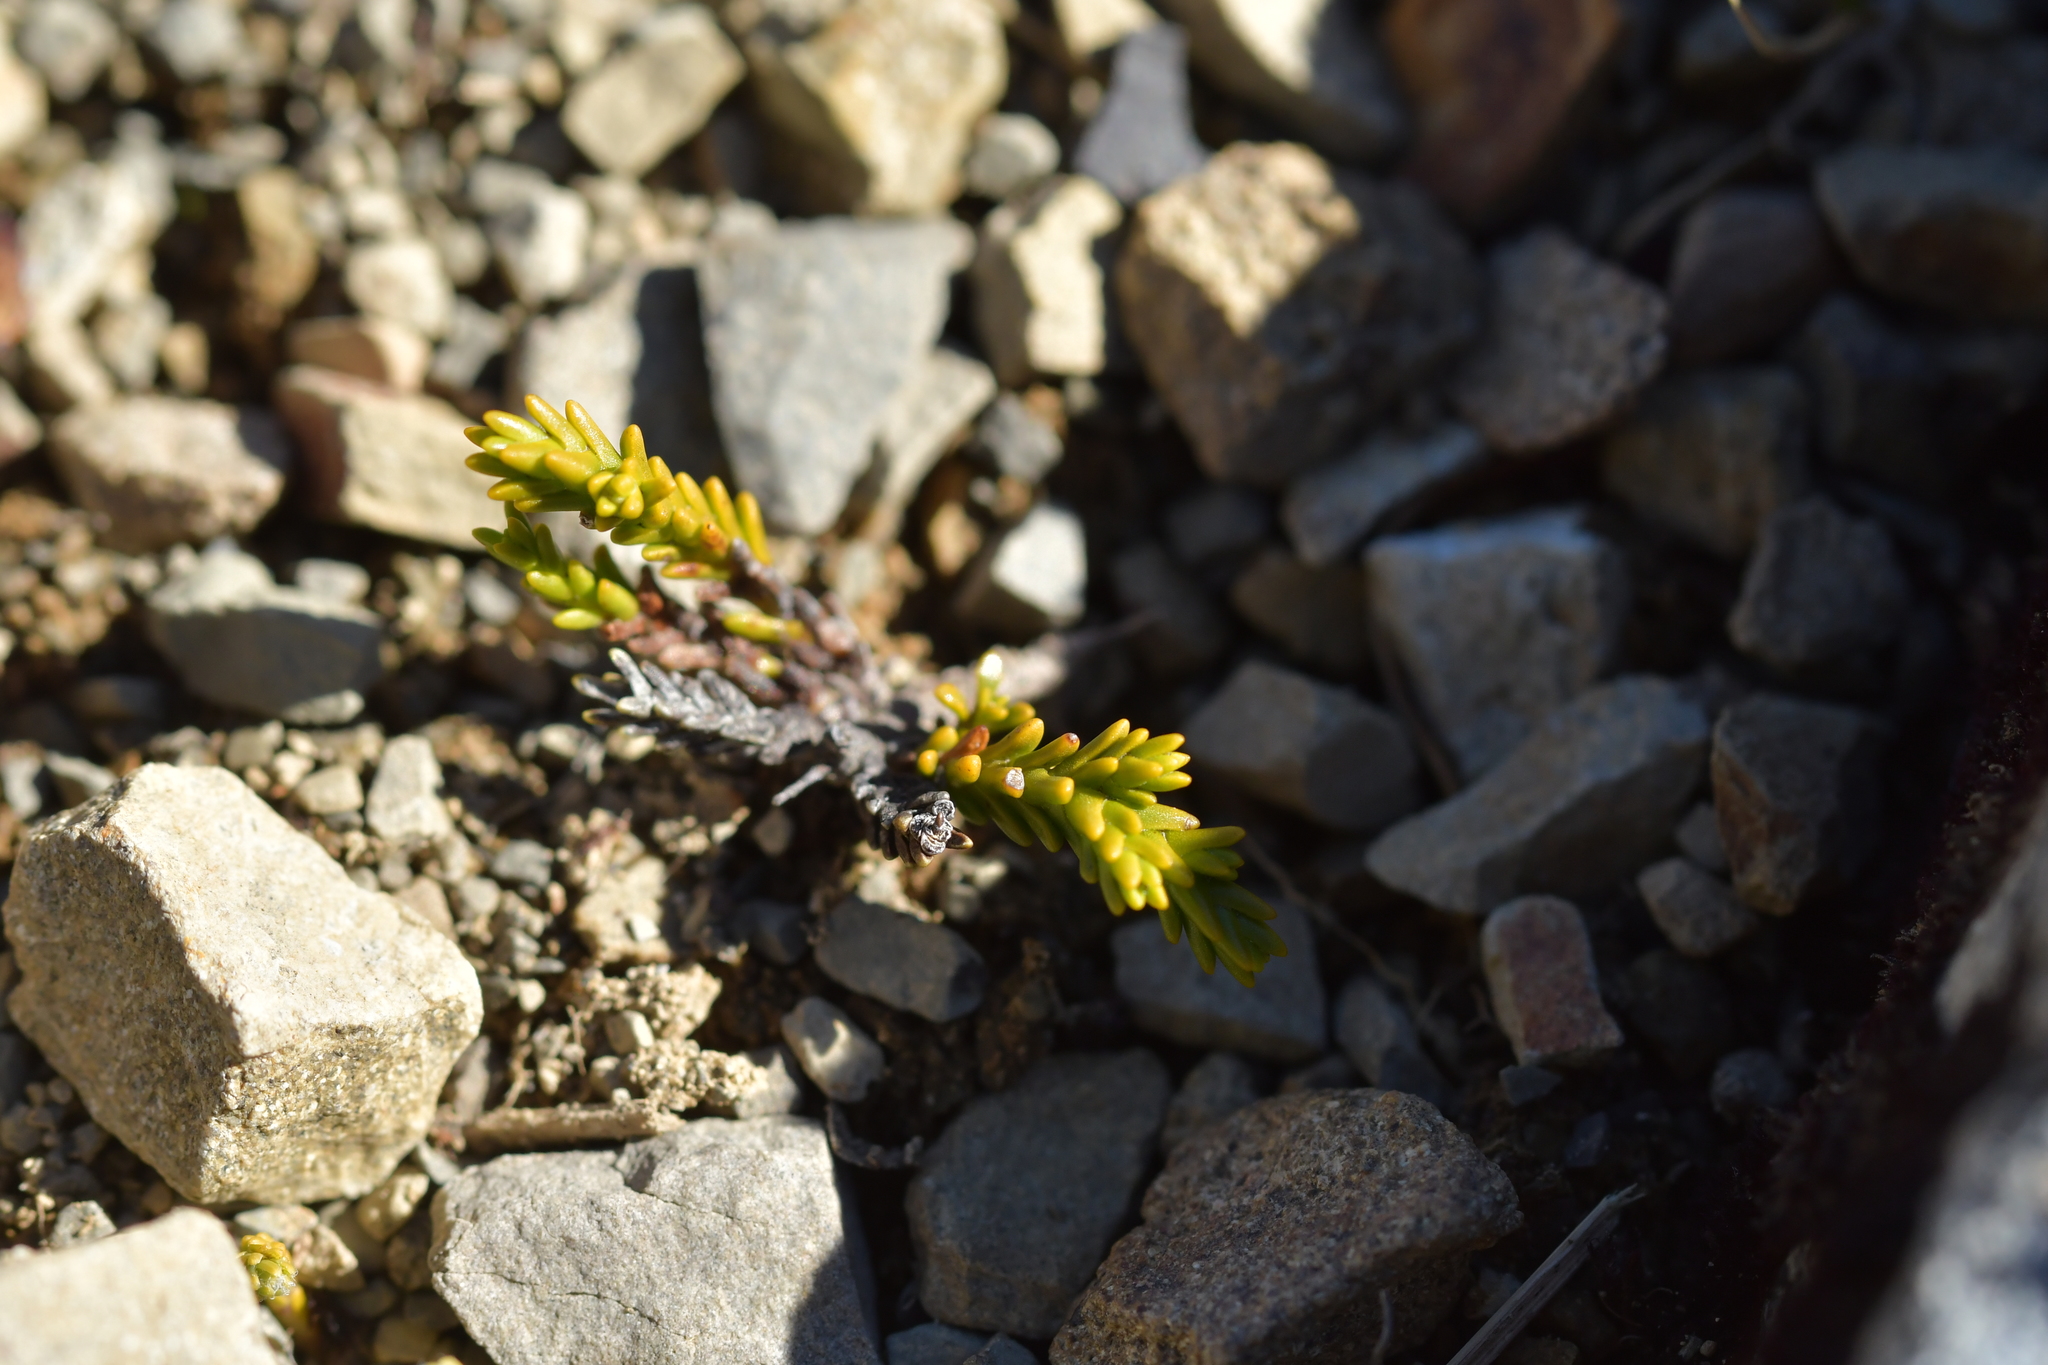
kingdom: Plantae
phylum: Tracheophyta
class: Magnoliopsida
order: Lamiales
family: Plantaginaceae
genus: Veronica
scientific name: Veronica tetragona
